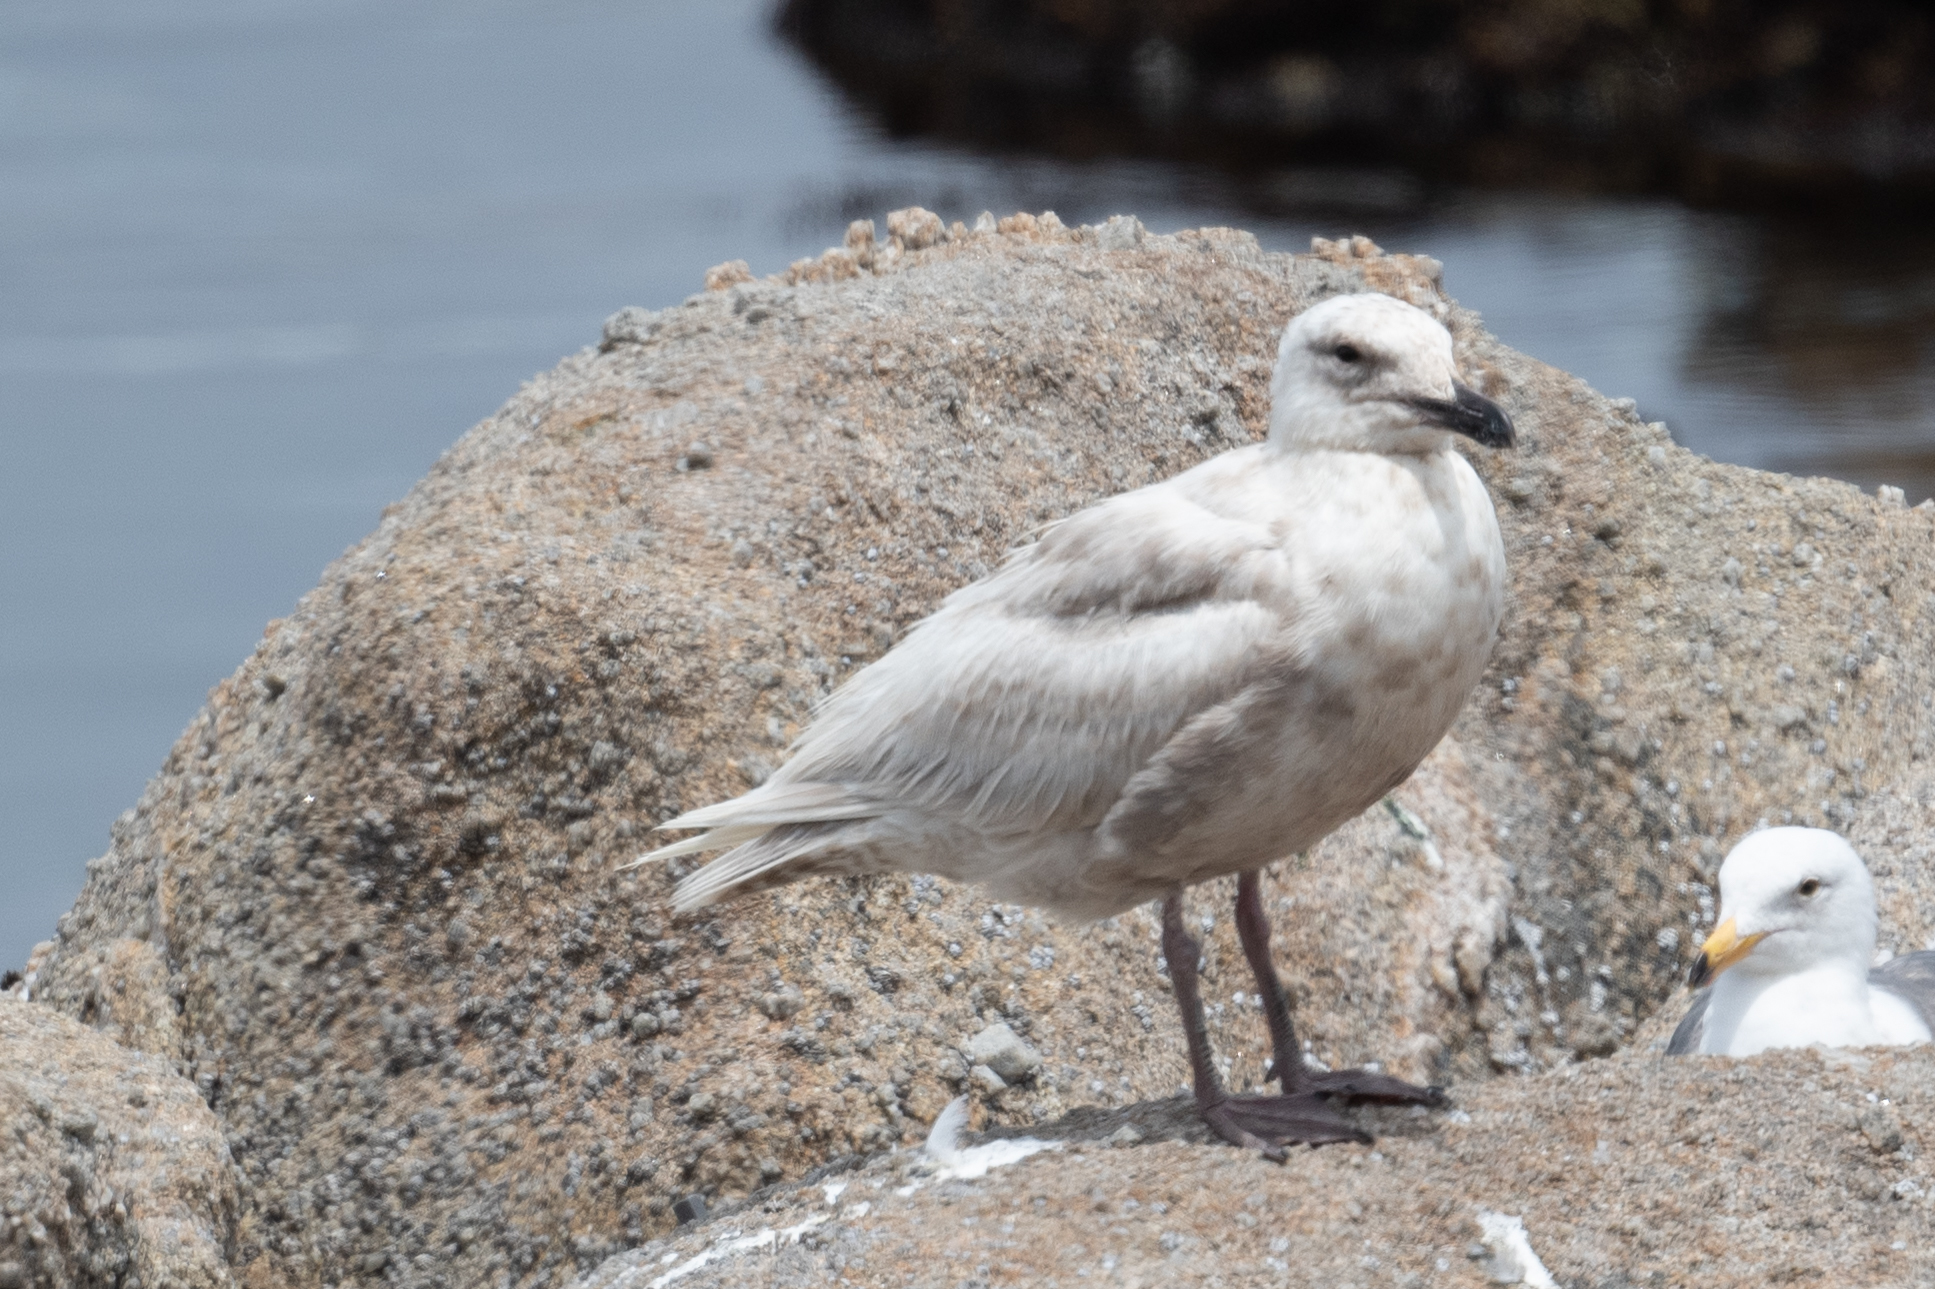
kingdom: Animalia
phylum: Chordata
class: Aves
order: Charadriiformes
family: Laridae
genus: Larus
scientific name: Larus glaucescens
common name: Glaucous-winged gull
